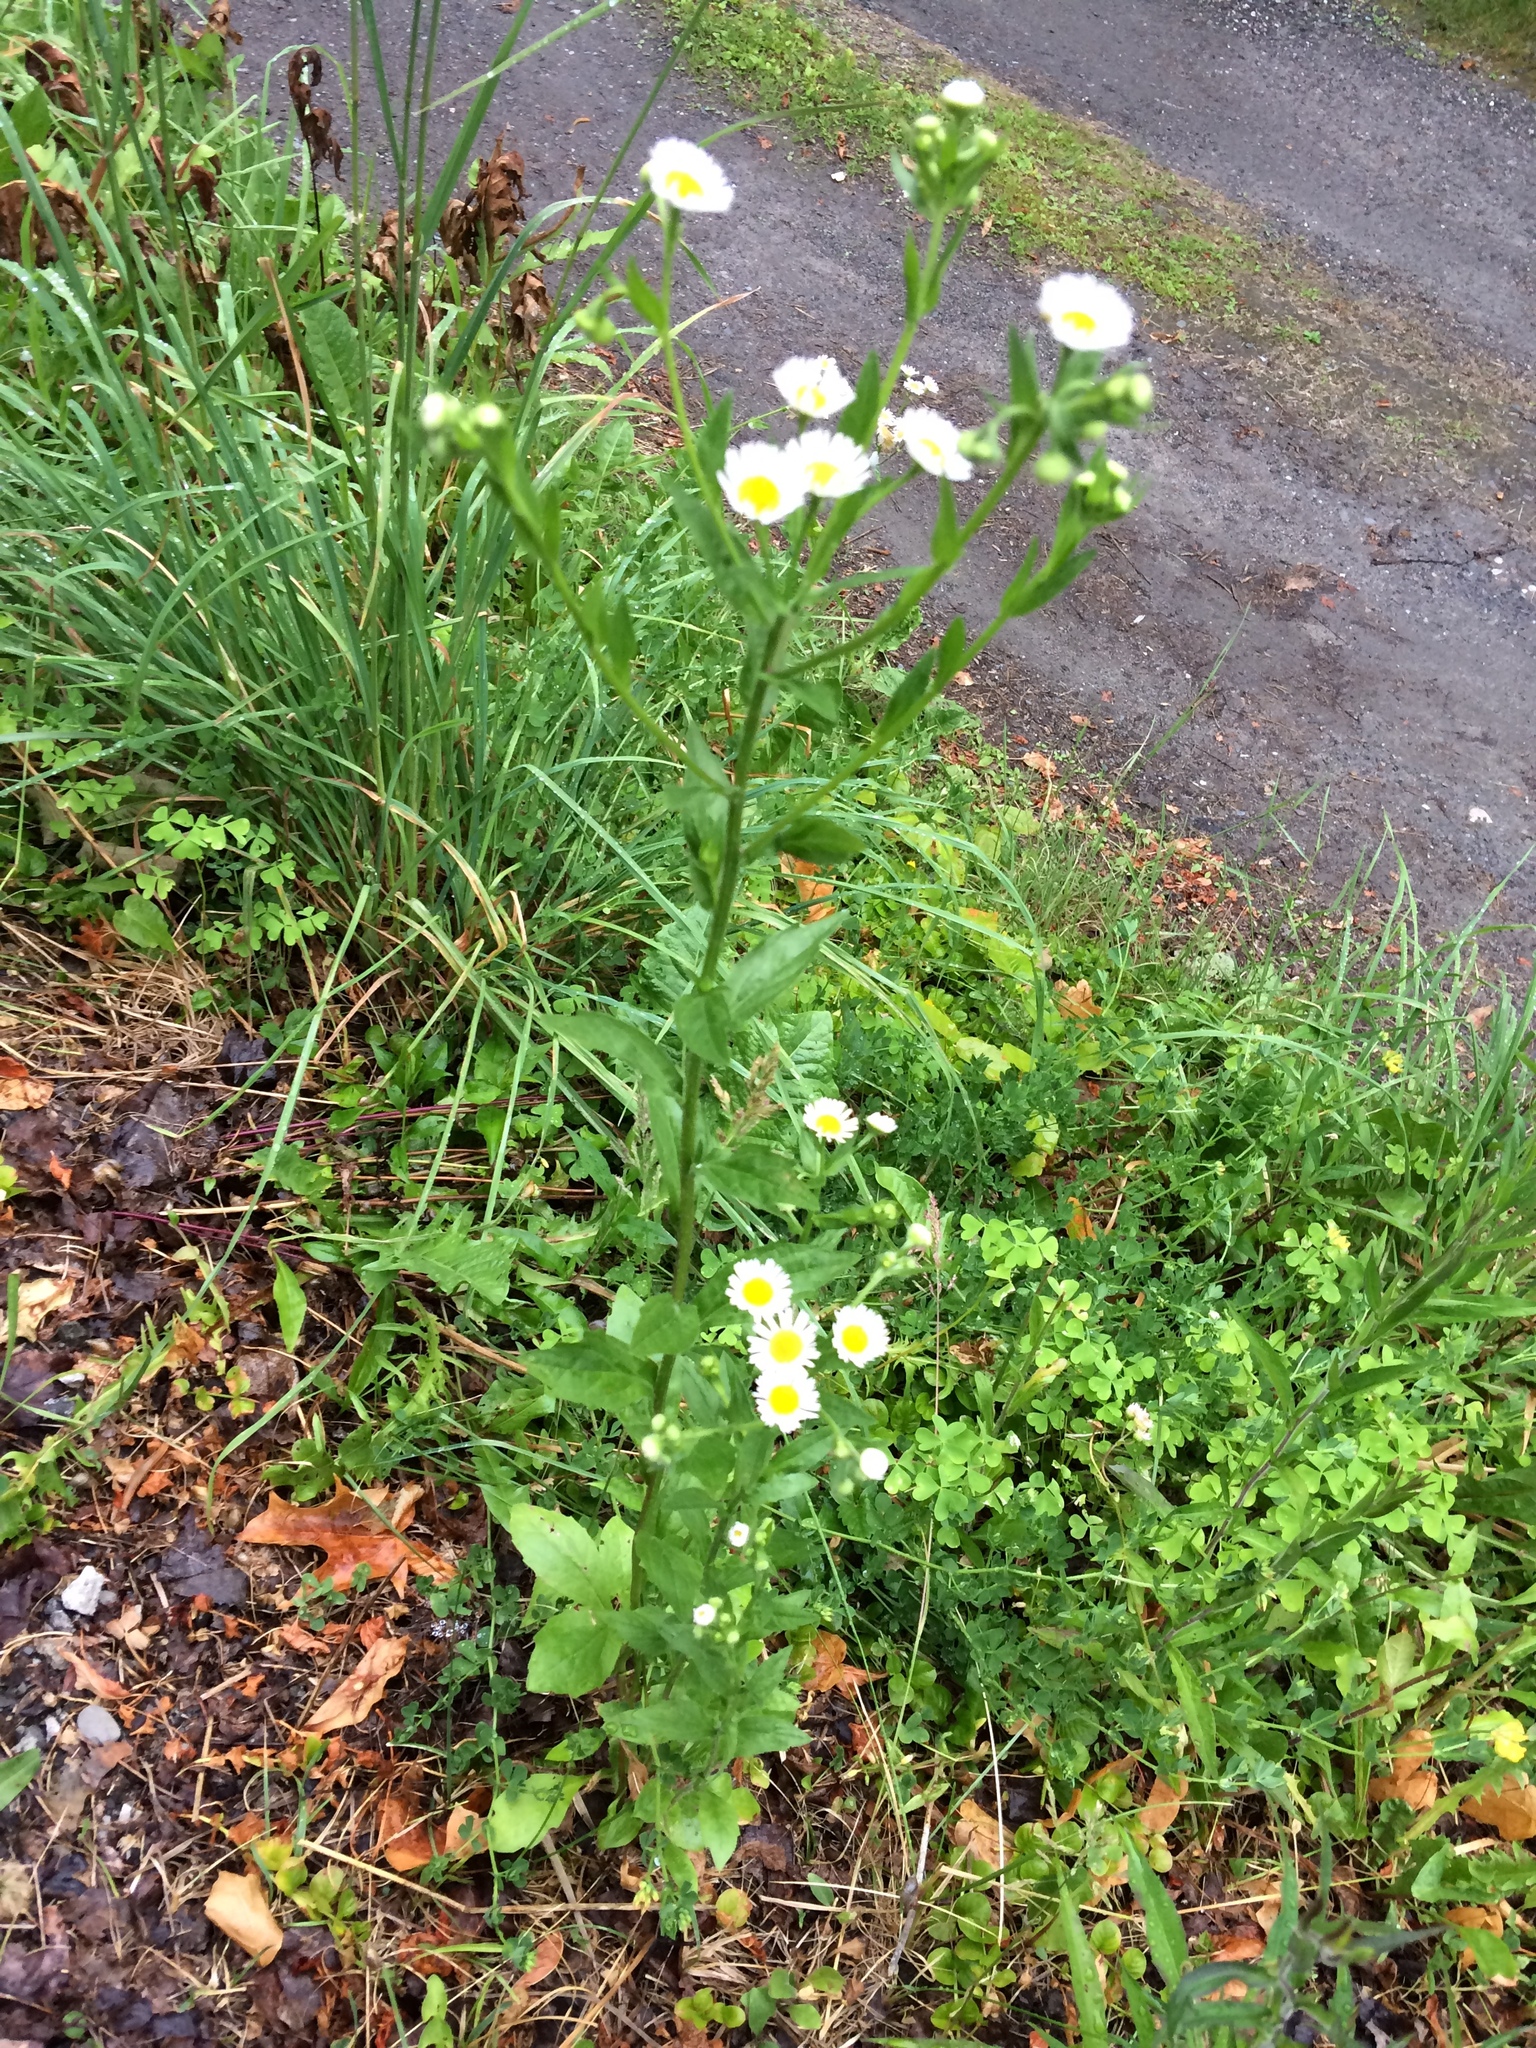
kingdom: Plantae
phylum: Tracheophyta
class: Magnoliopsida
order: Asterales
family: Asteraceae
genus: Erigeron
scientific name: Erigeron annuus
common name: Tall fleabane
